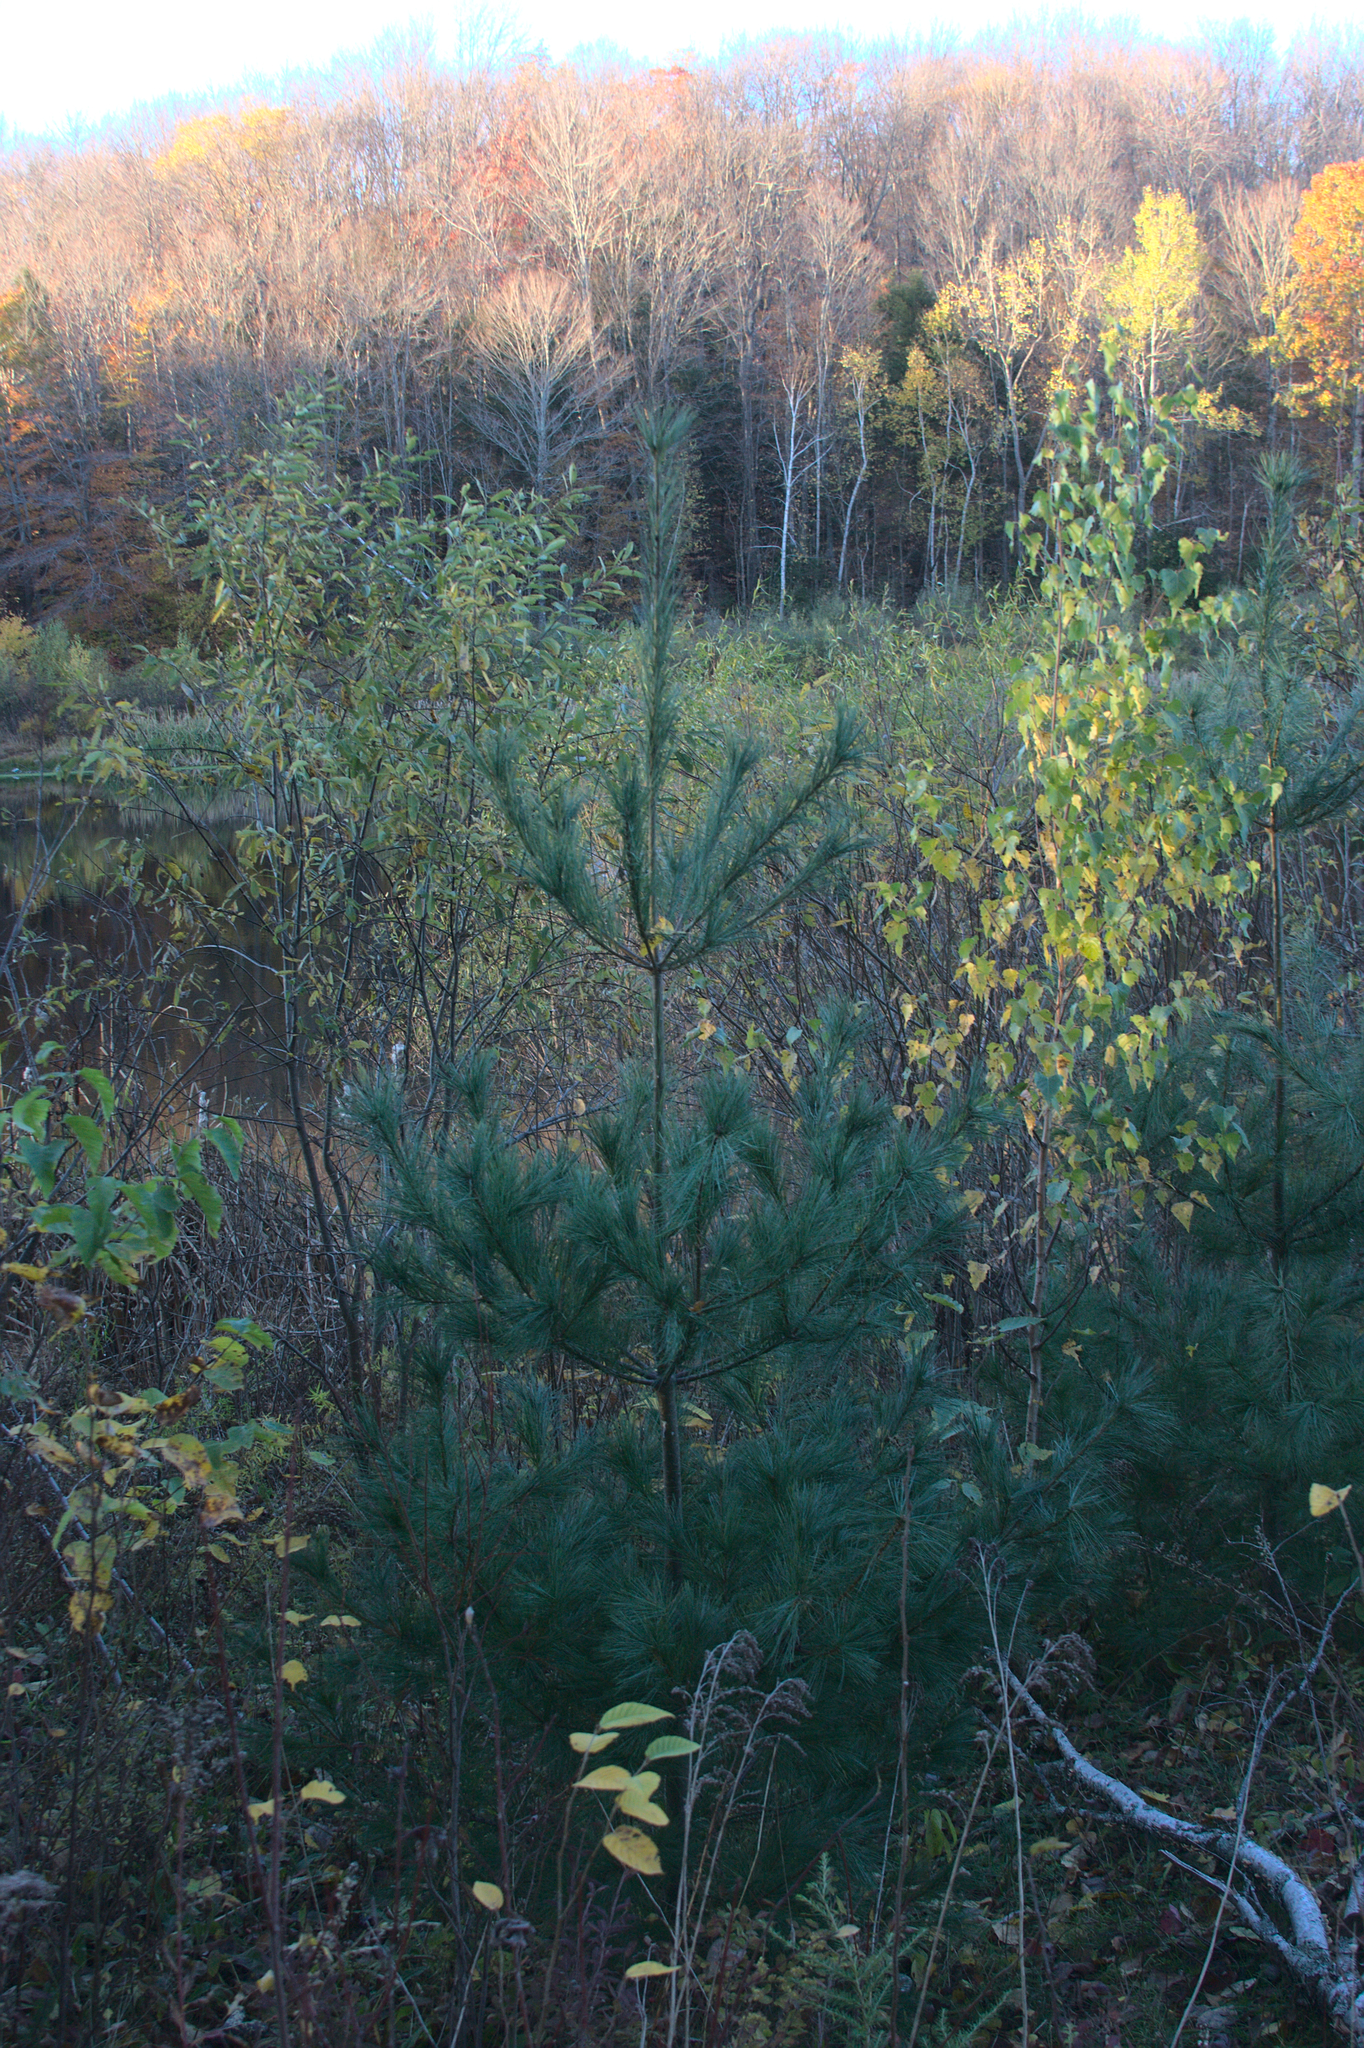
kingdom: Plantae
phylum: Tracheophyta
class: Pinopsida
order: Pinales
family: Pinaceae
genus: Pinus
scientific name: Pinus strobus
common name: Weymouth pine
